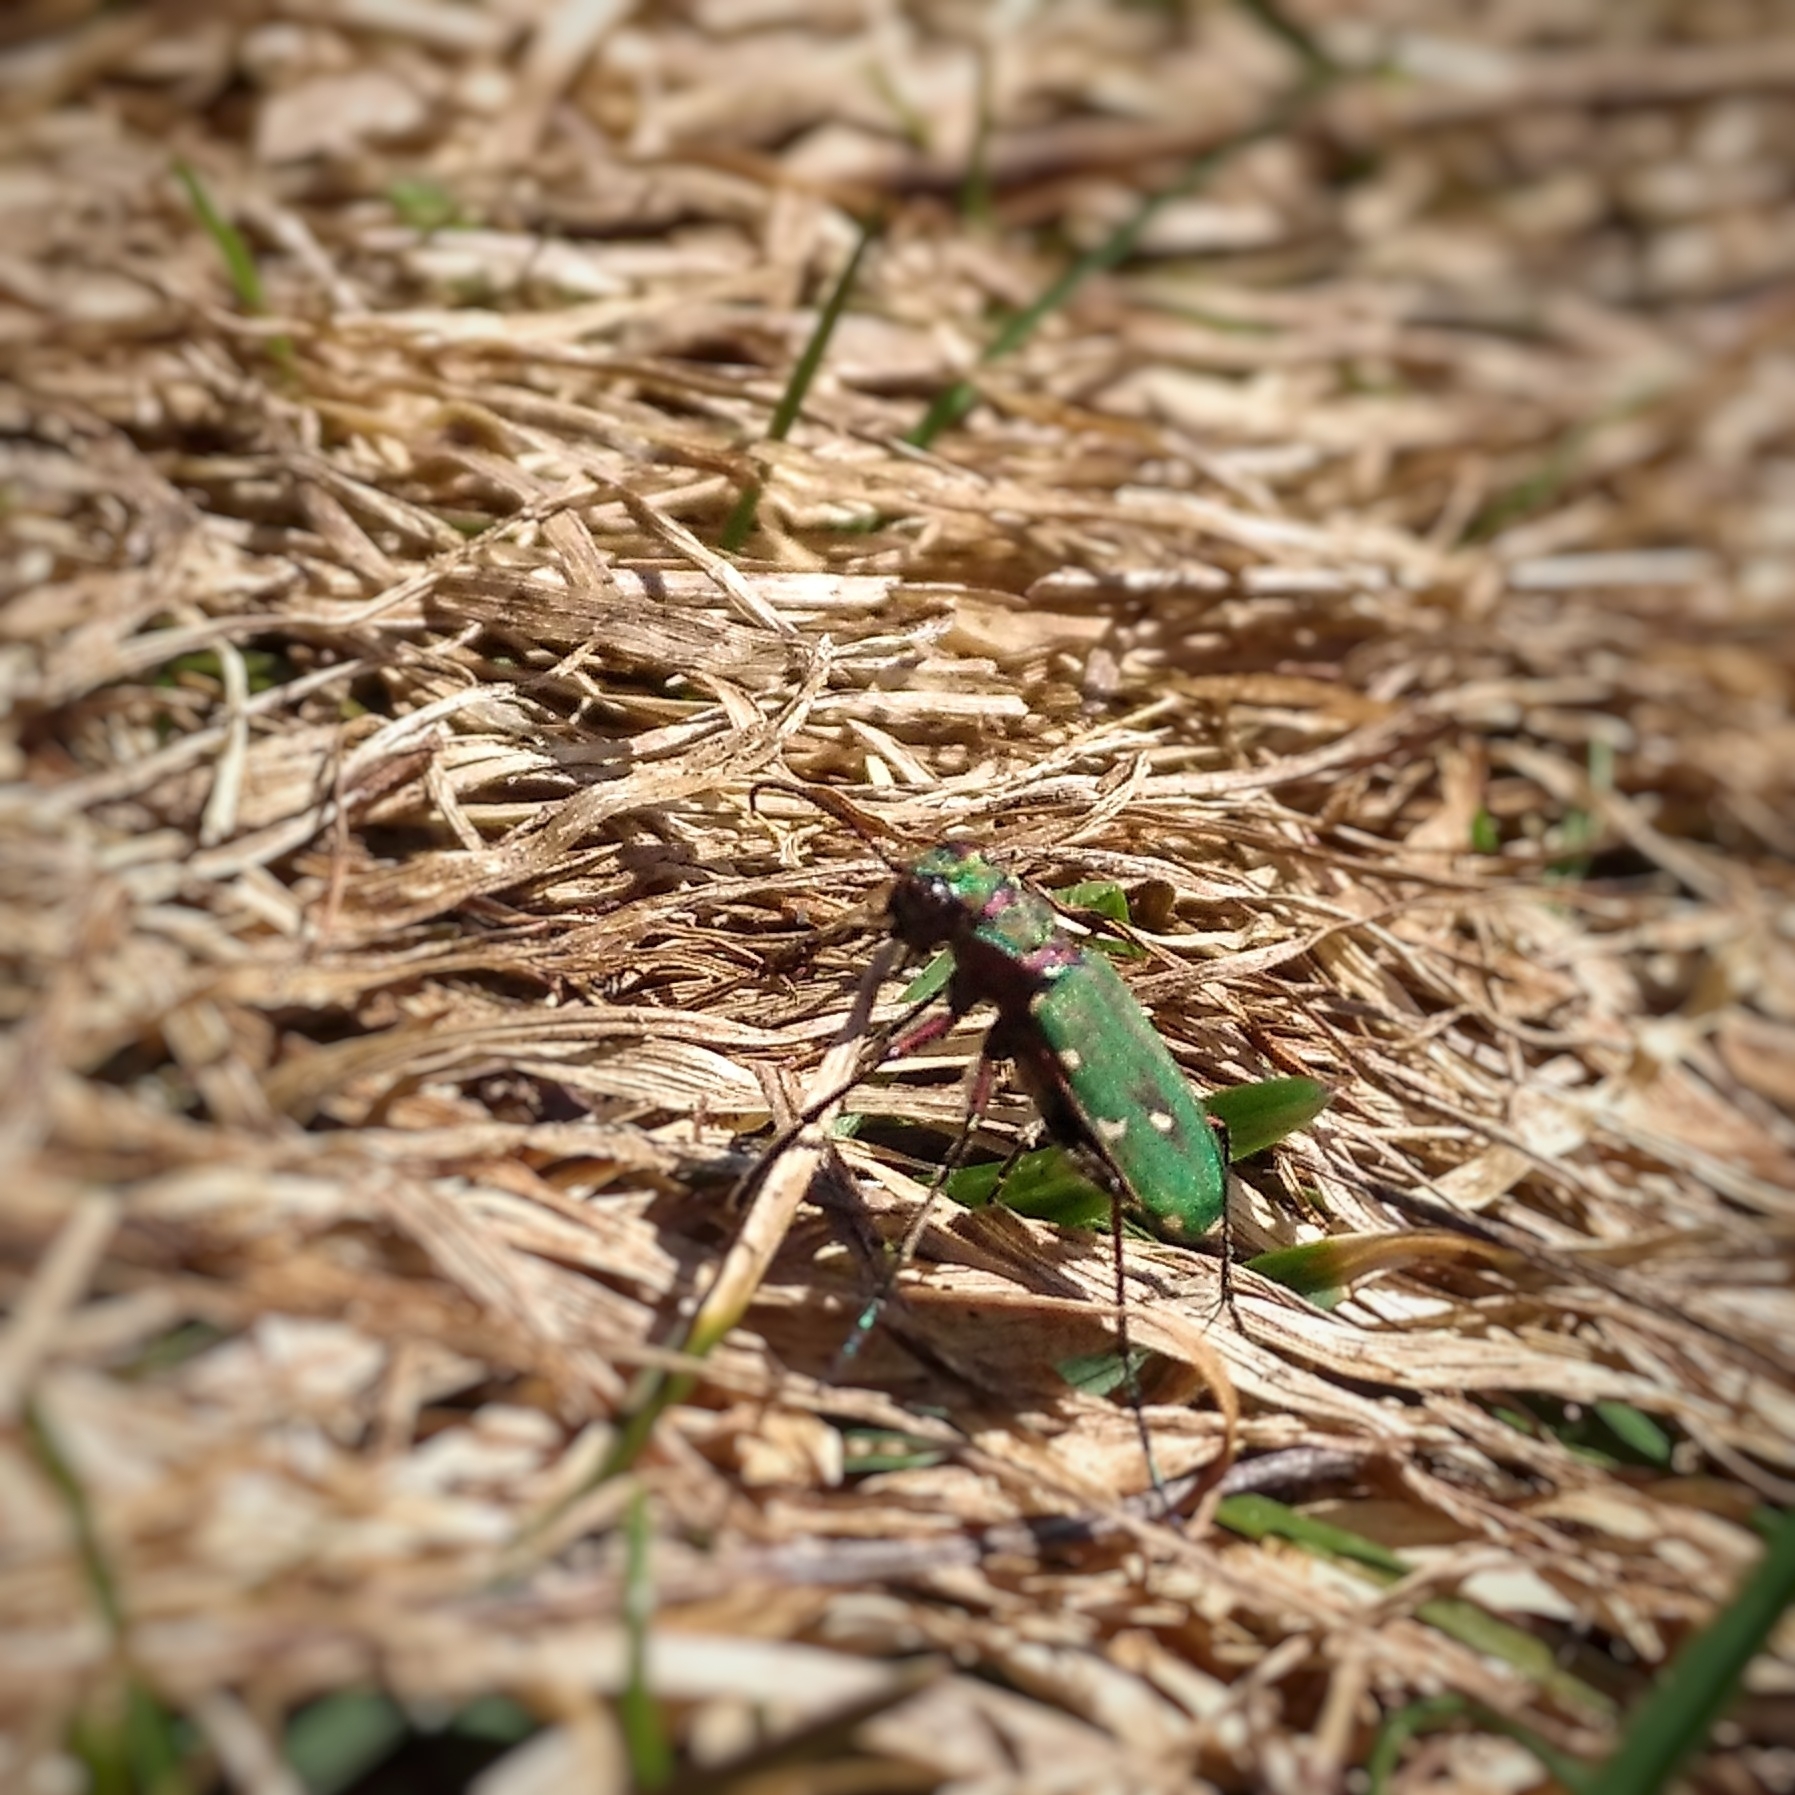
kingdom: Animalia
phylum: Arthropoda
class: Insecta
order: Coleoptera
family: Carabidae
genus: Cicindela
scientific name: Cicindela campestris
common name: Common tiger beetle
